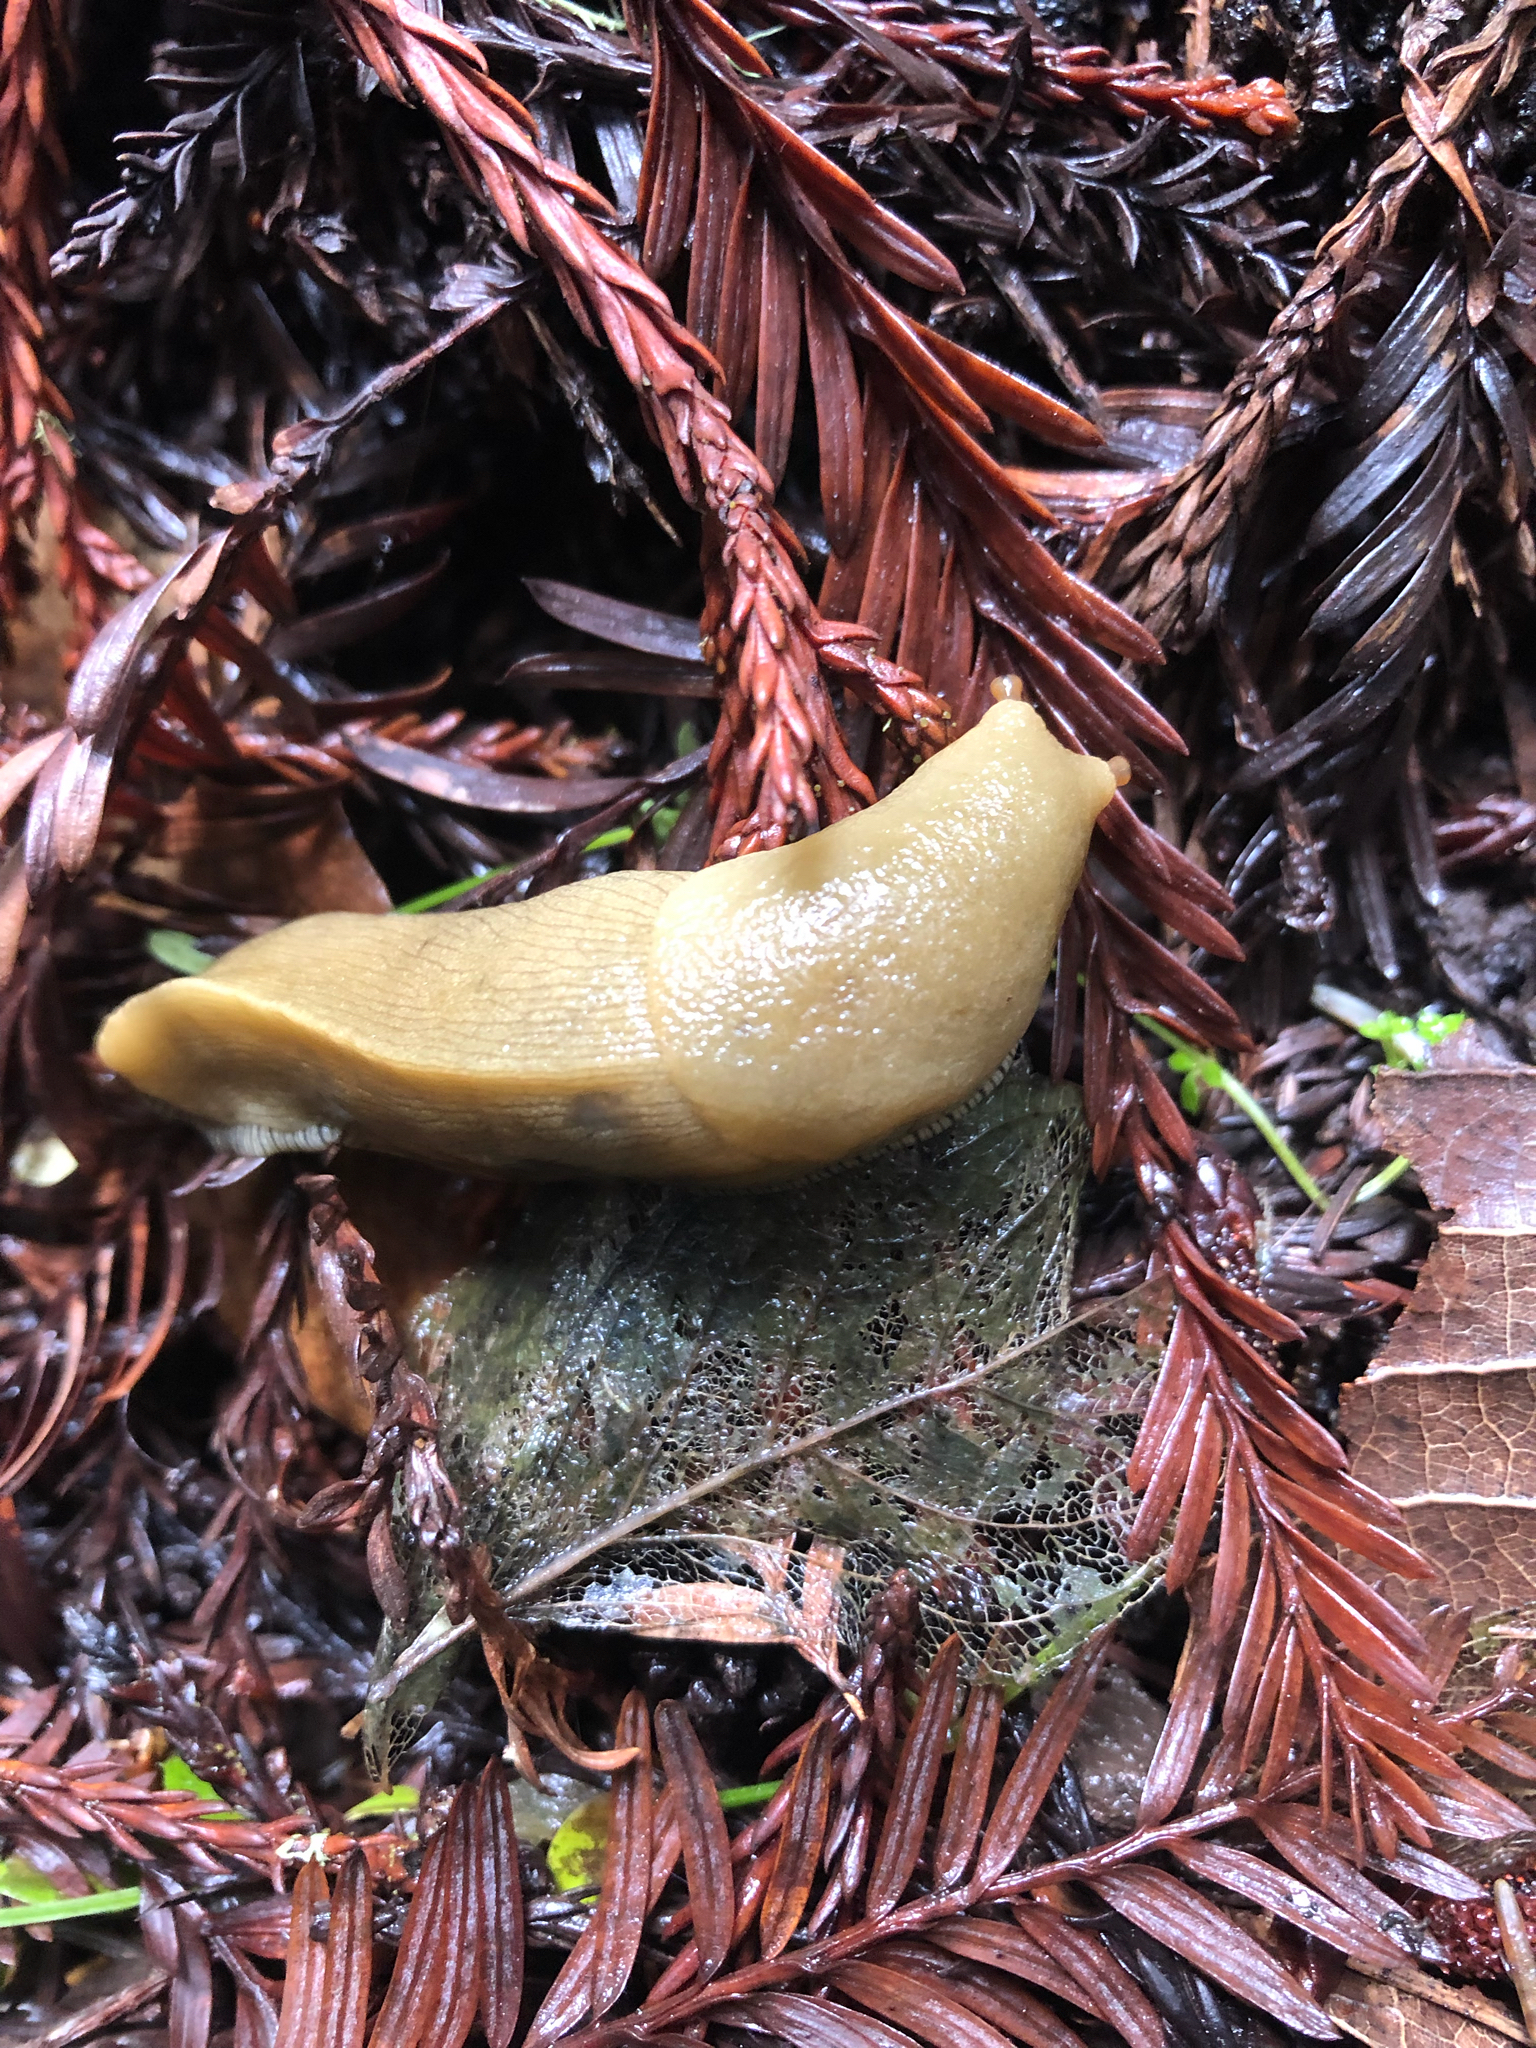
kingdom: Animalia
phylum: Mollusca
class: Gastropoda
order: Stylommatophora
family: Ariolimacidae
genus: Ariolimax
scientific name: Ariolimax buttoni
